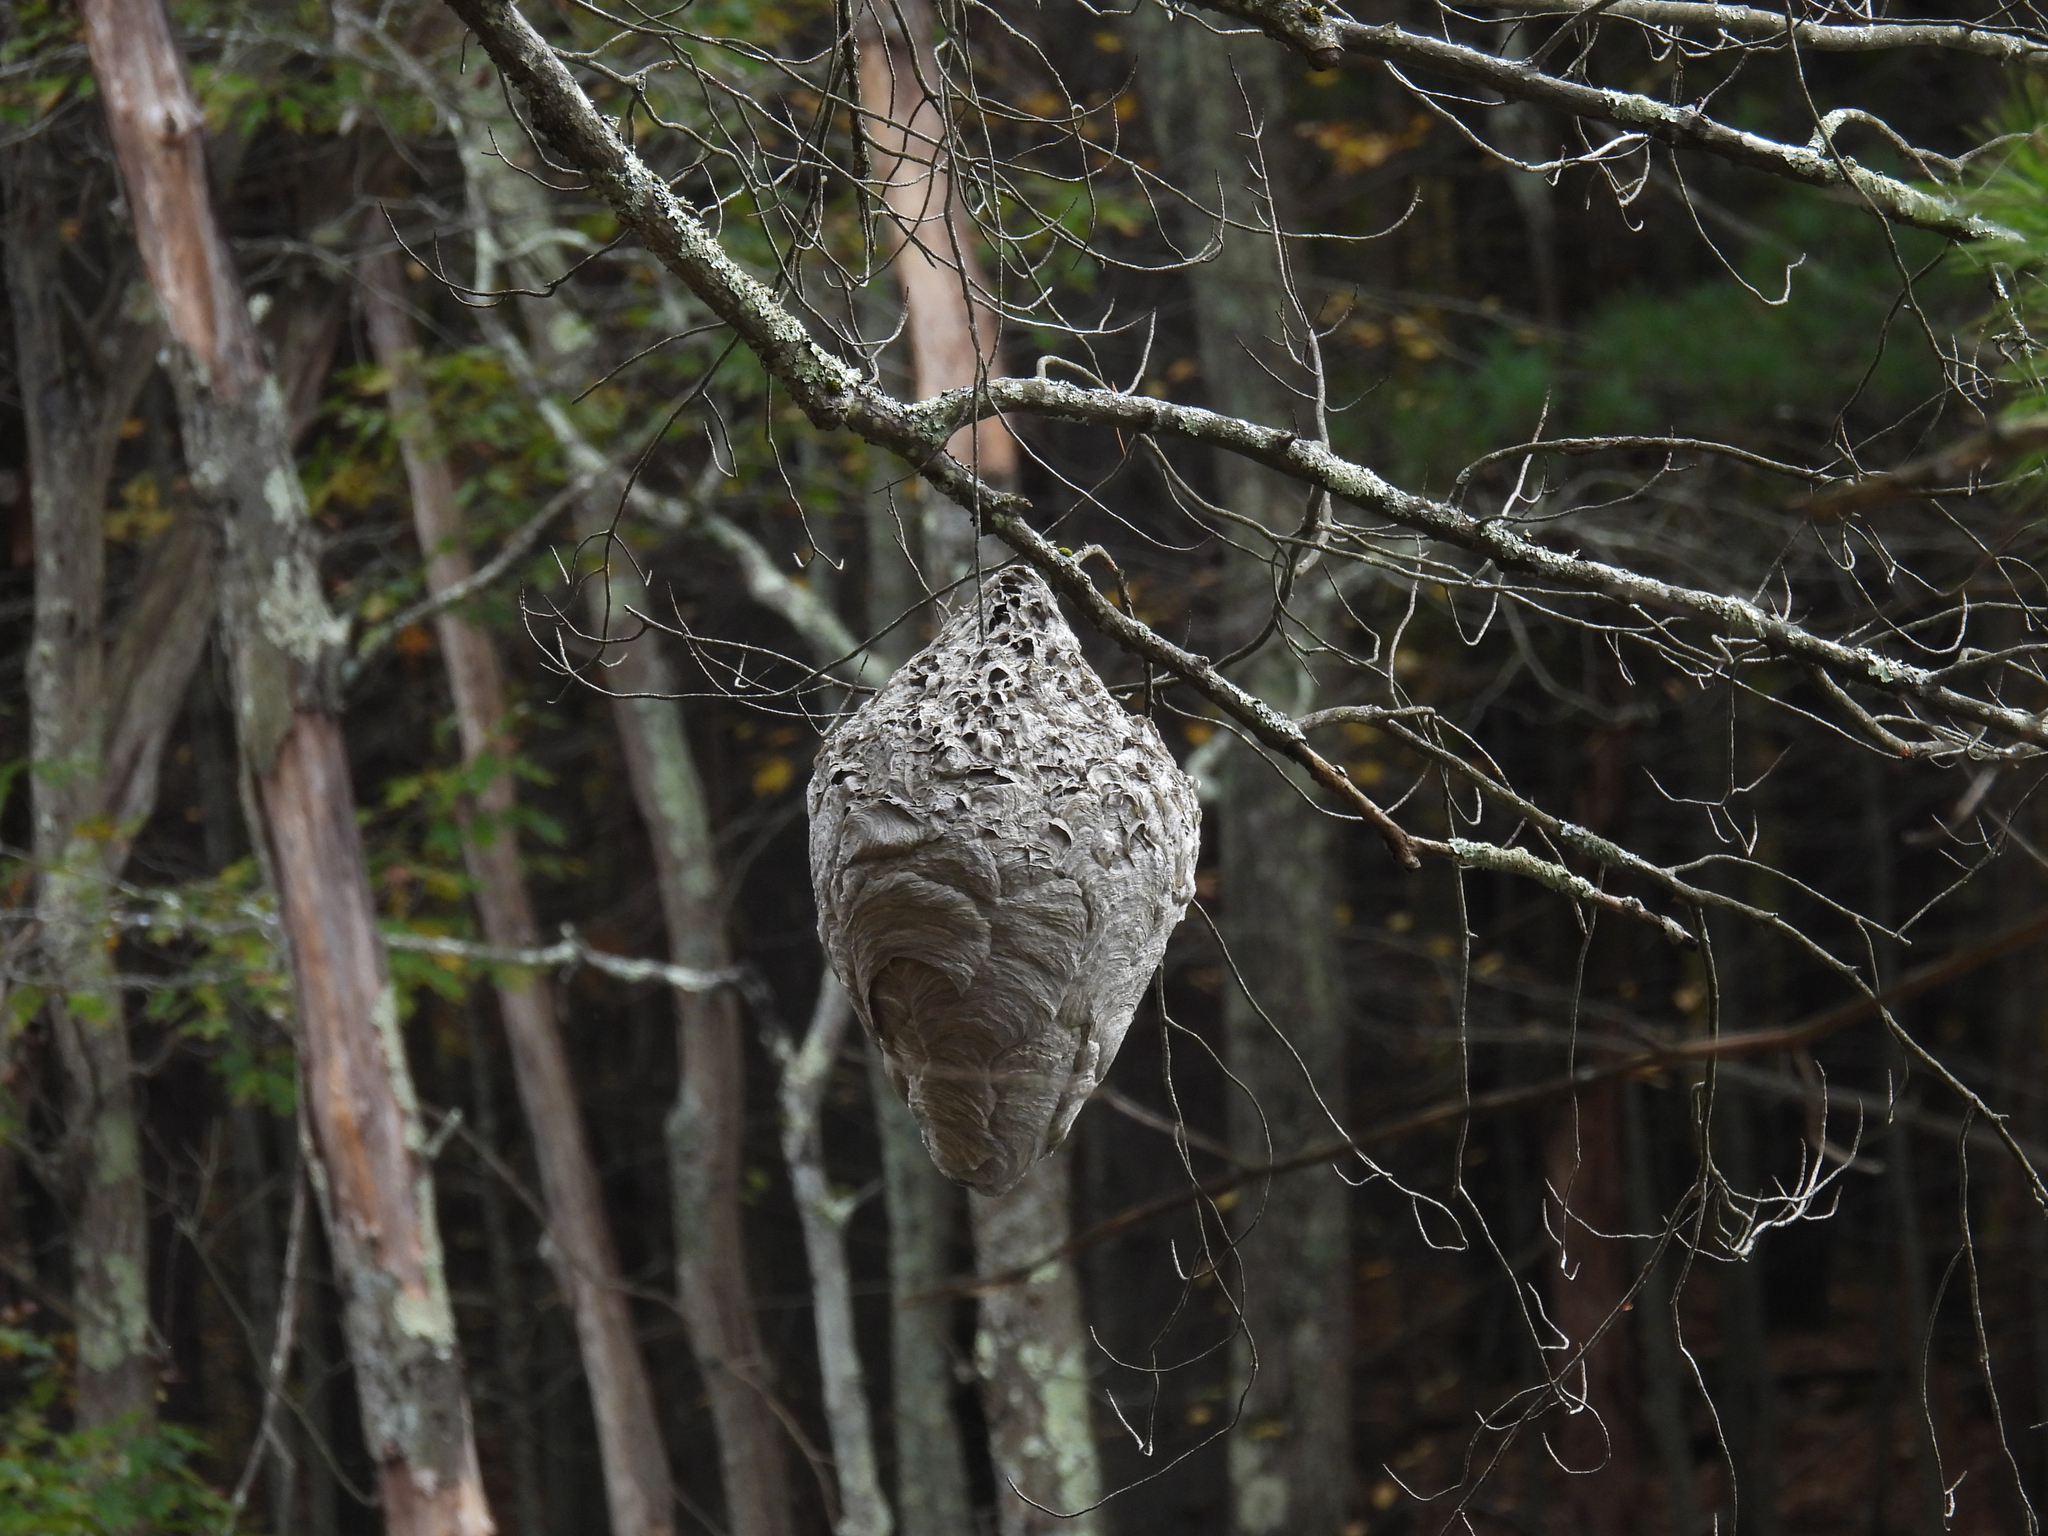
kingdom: Animalia
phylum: Arthropoda
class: Insecta
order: Hymenoptera
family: Vespidae
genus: Dolichovespula
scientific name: Dolichovespula maculata
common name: Bald-faced hornet
